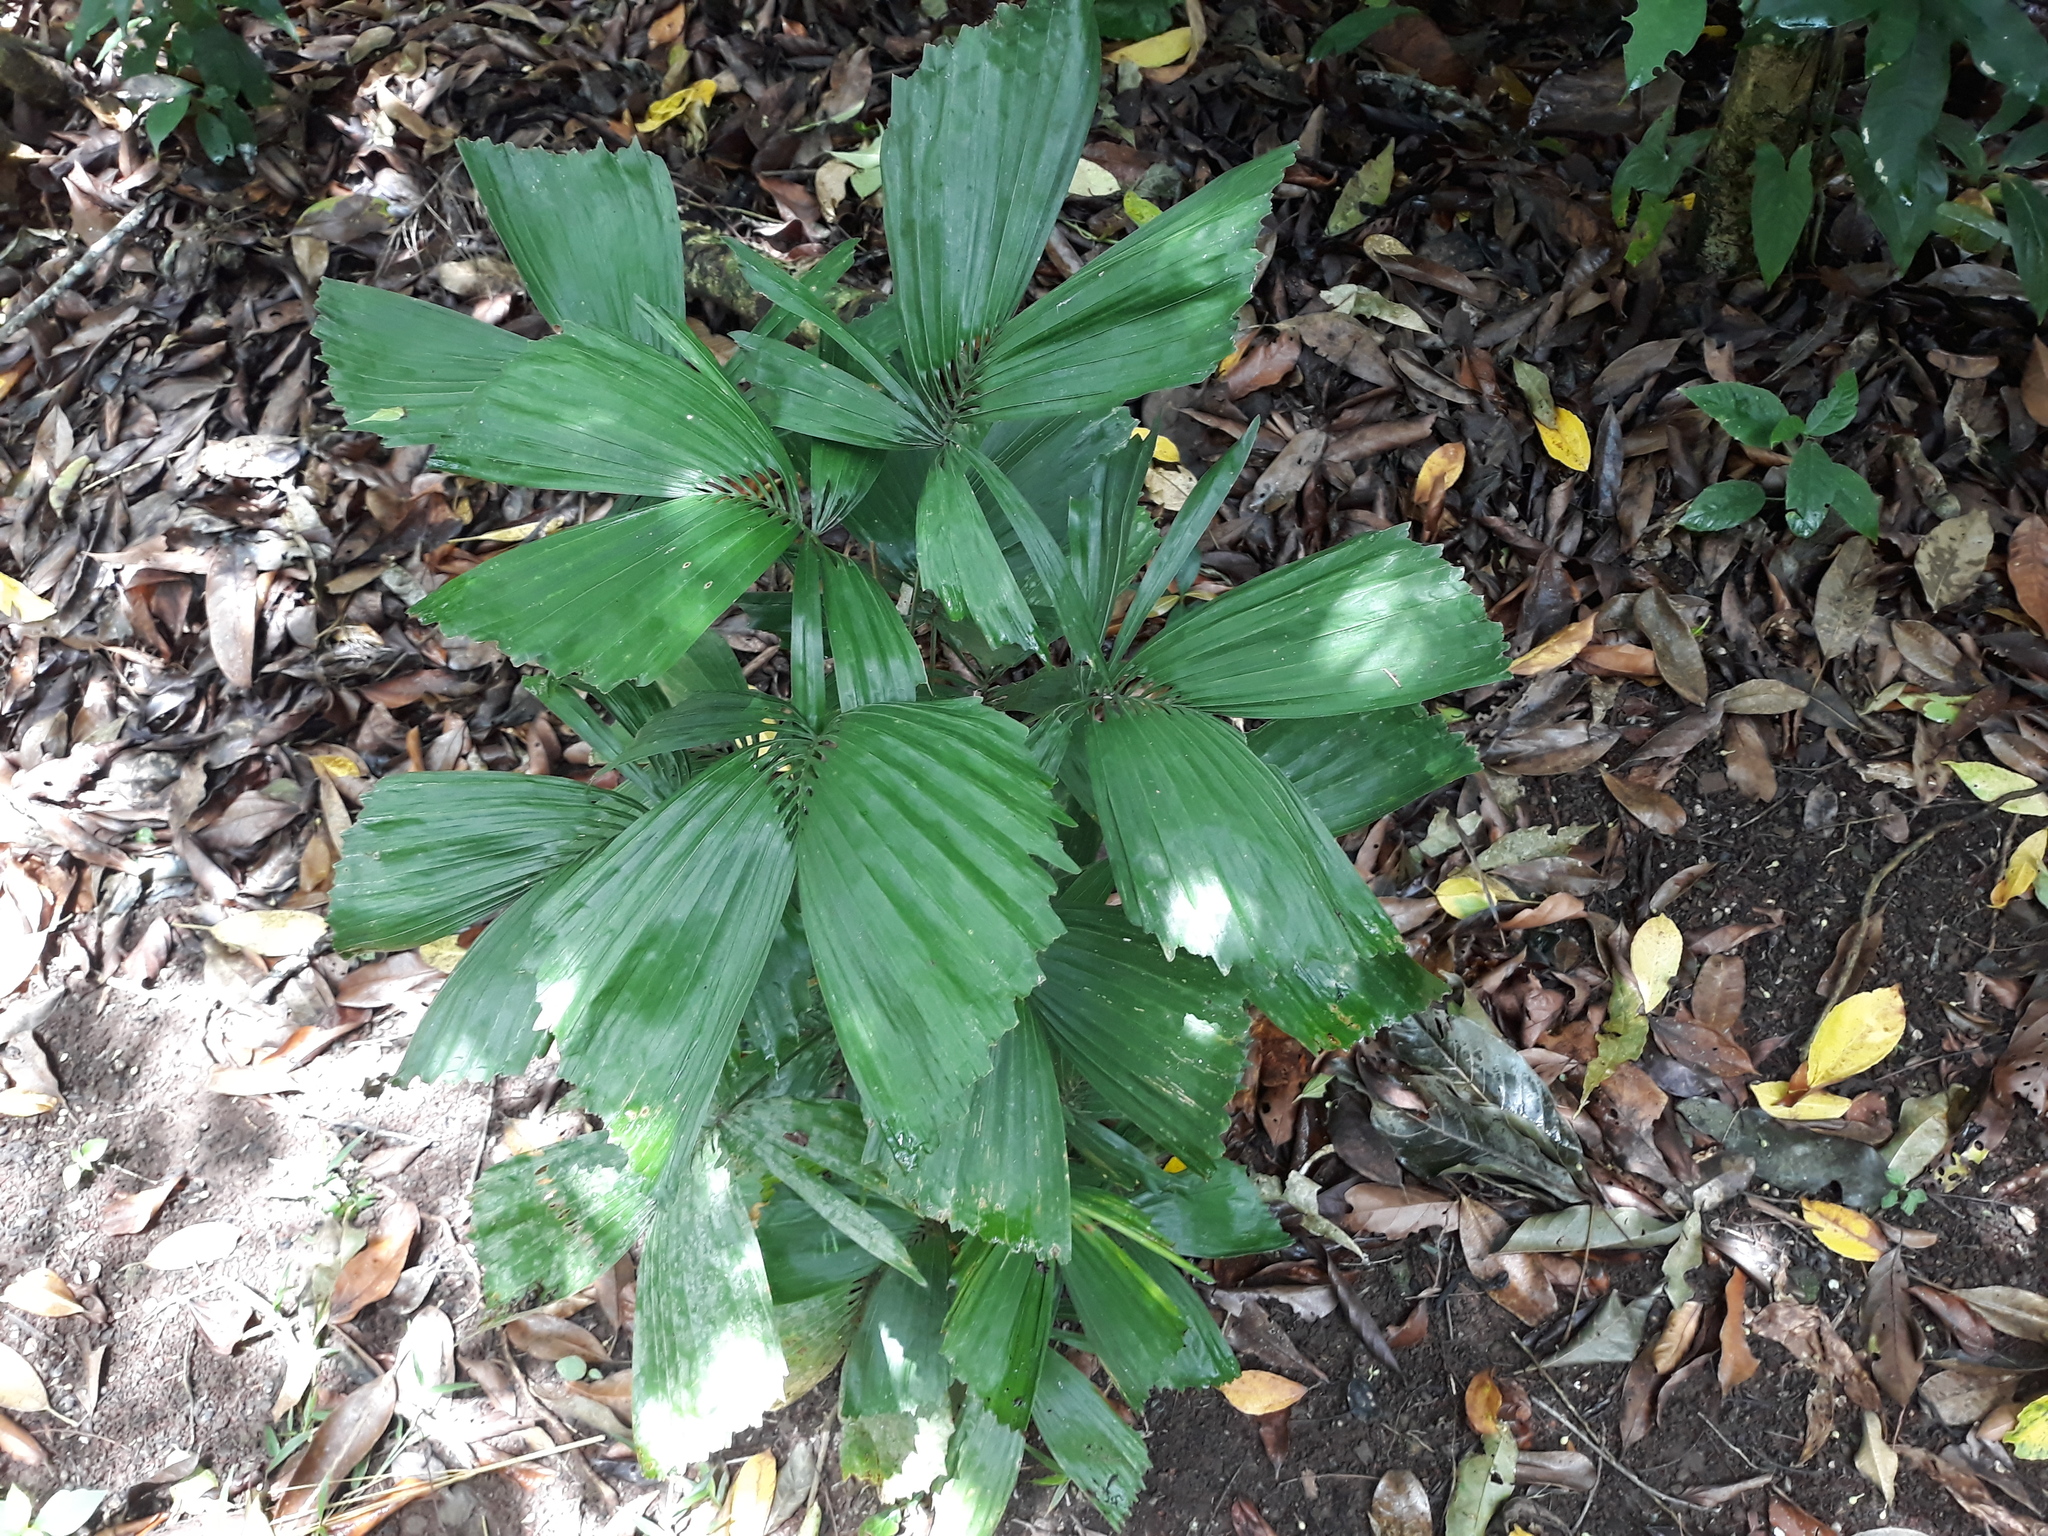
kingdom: Plantae
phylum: Tracheophyta
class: Liliopsida
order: Arecales
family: Arecaceae
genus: Reinhardtia
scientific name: Reinhardtia gracilis
